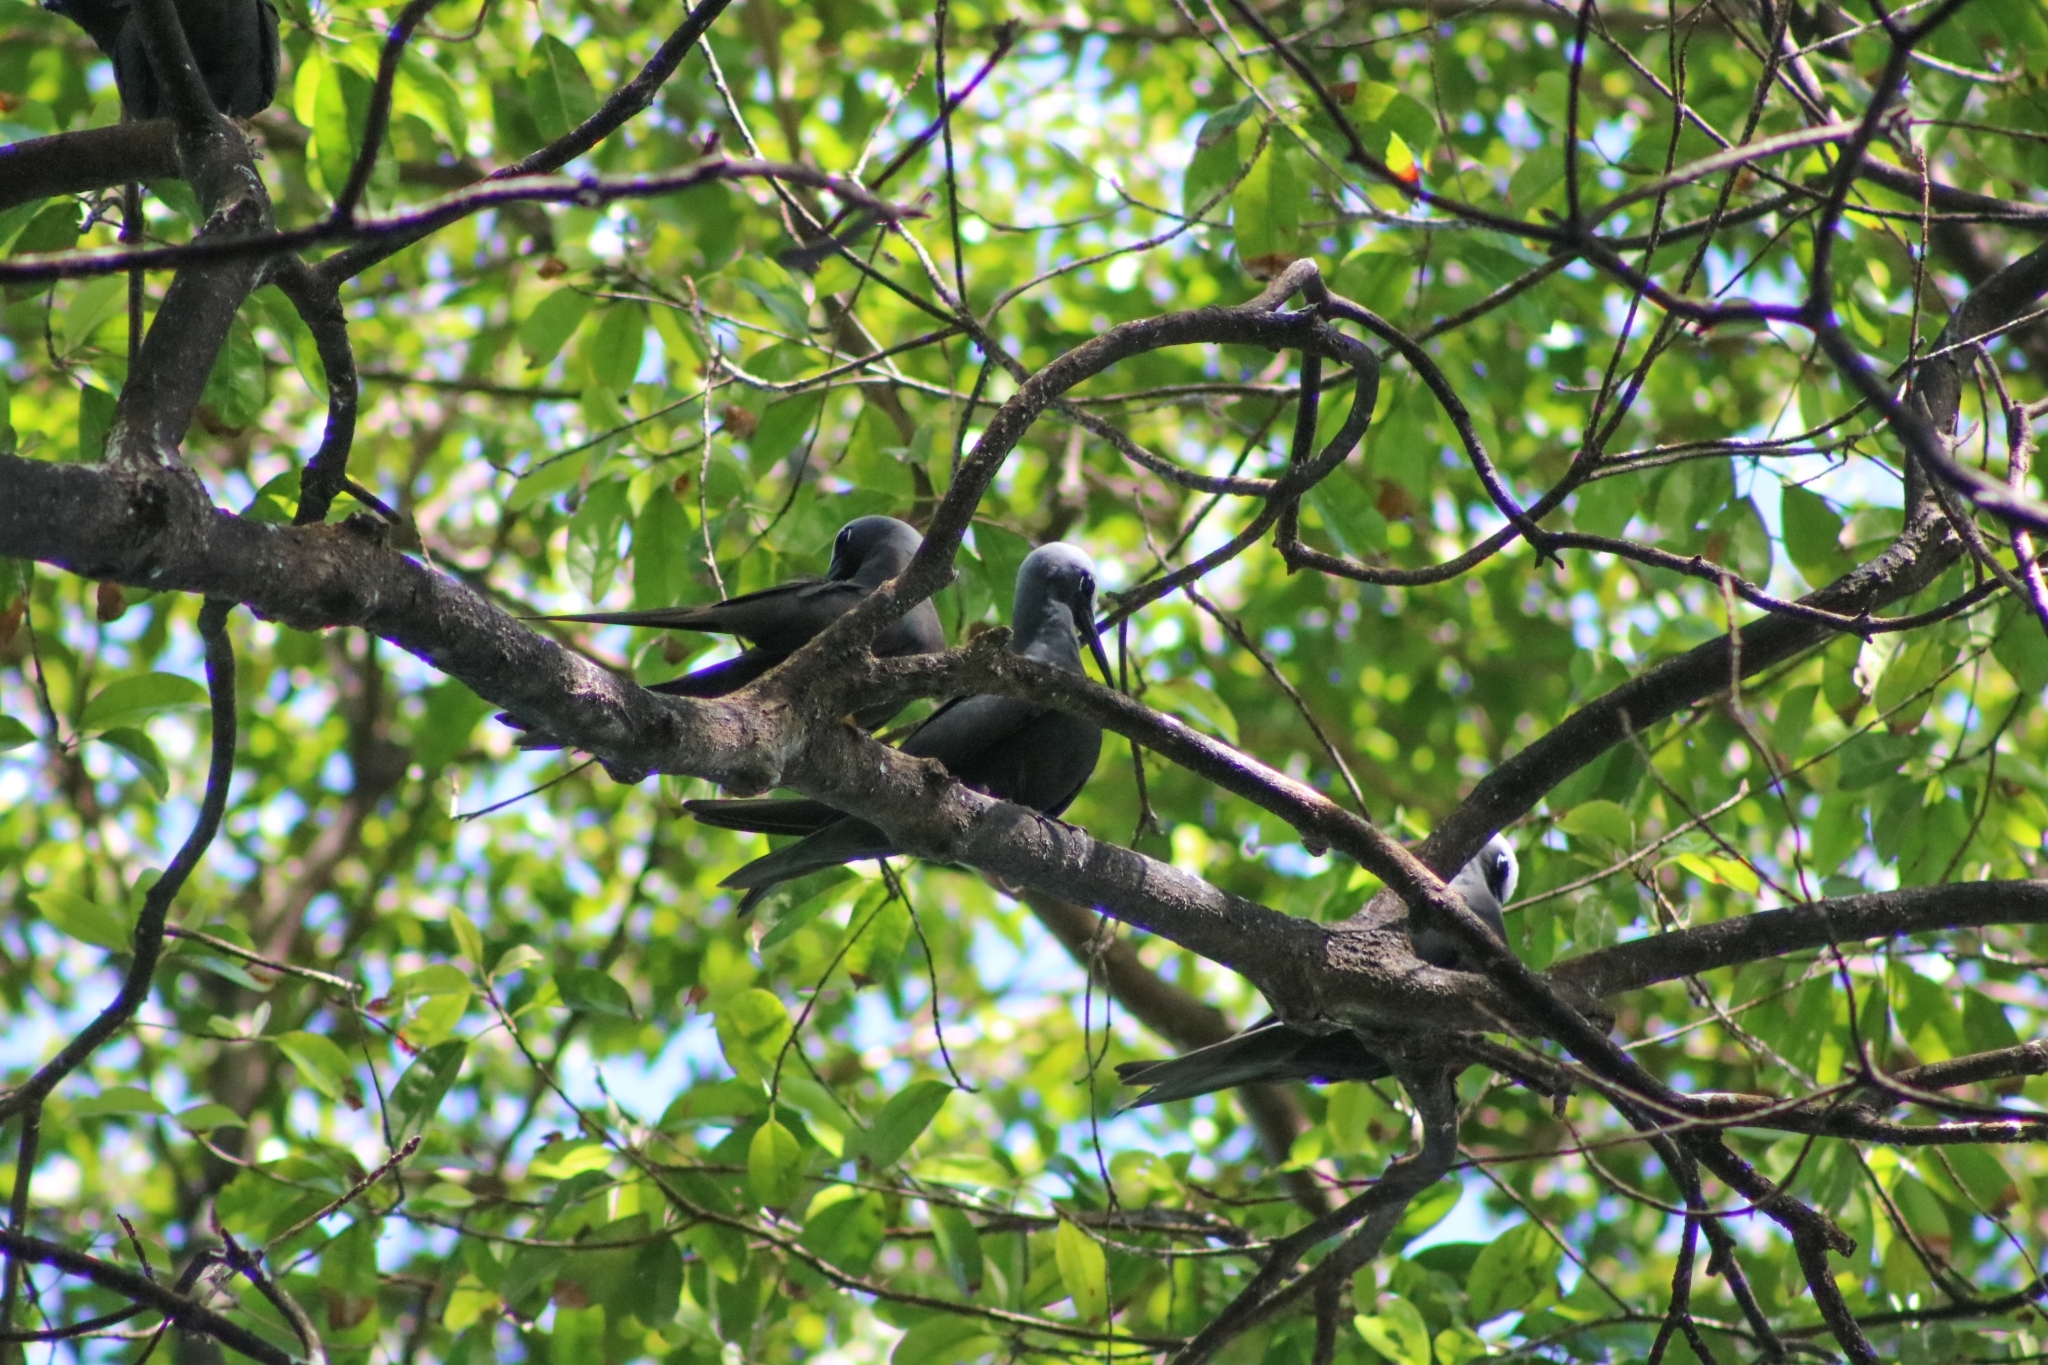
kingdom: Animalia
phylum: Chordata
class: Aves
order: Charadriiformes
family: Laridae
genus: Anous
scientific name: Anous minutus
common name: Black noddy
